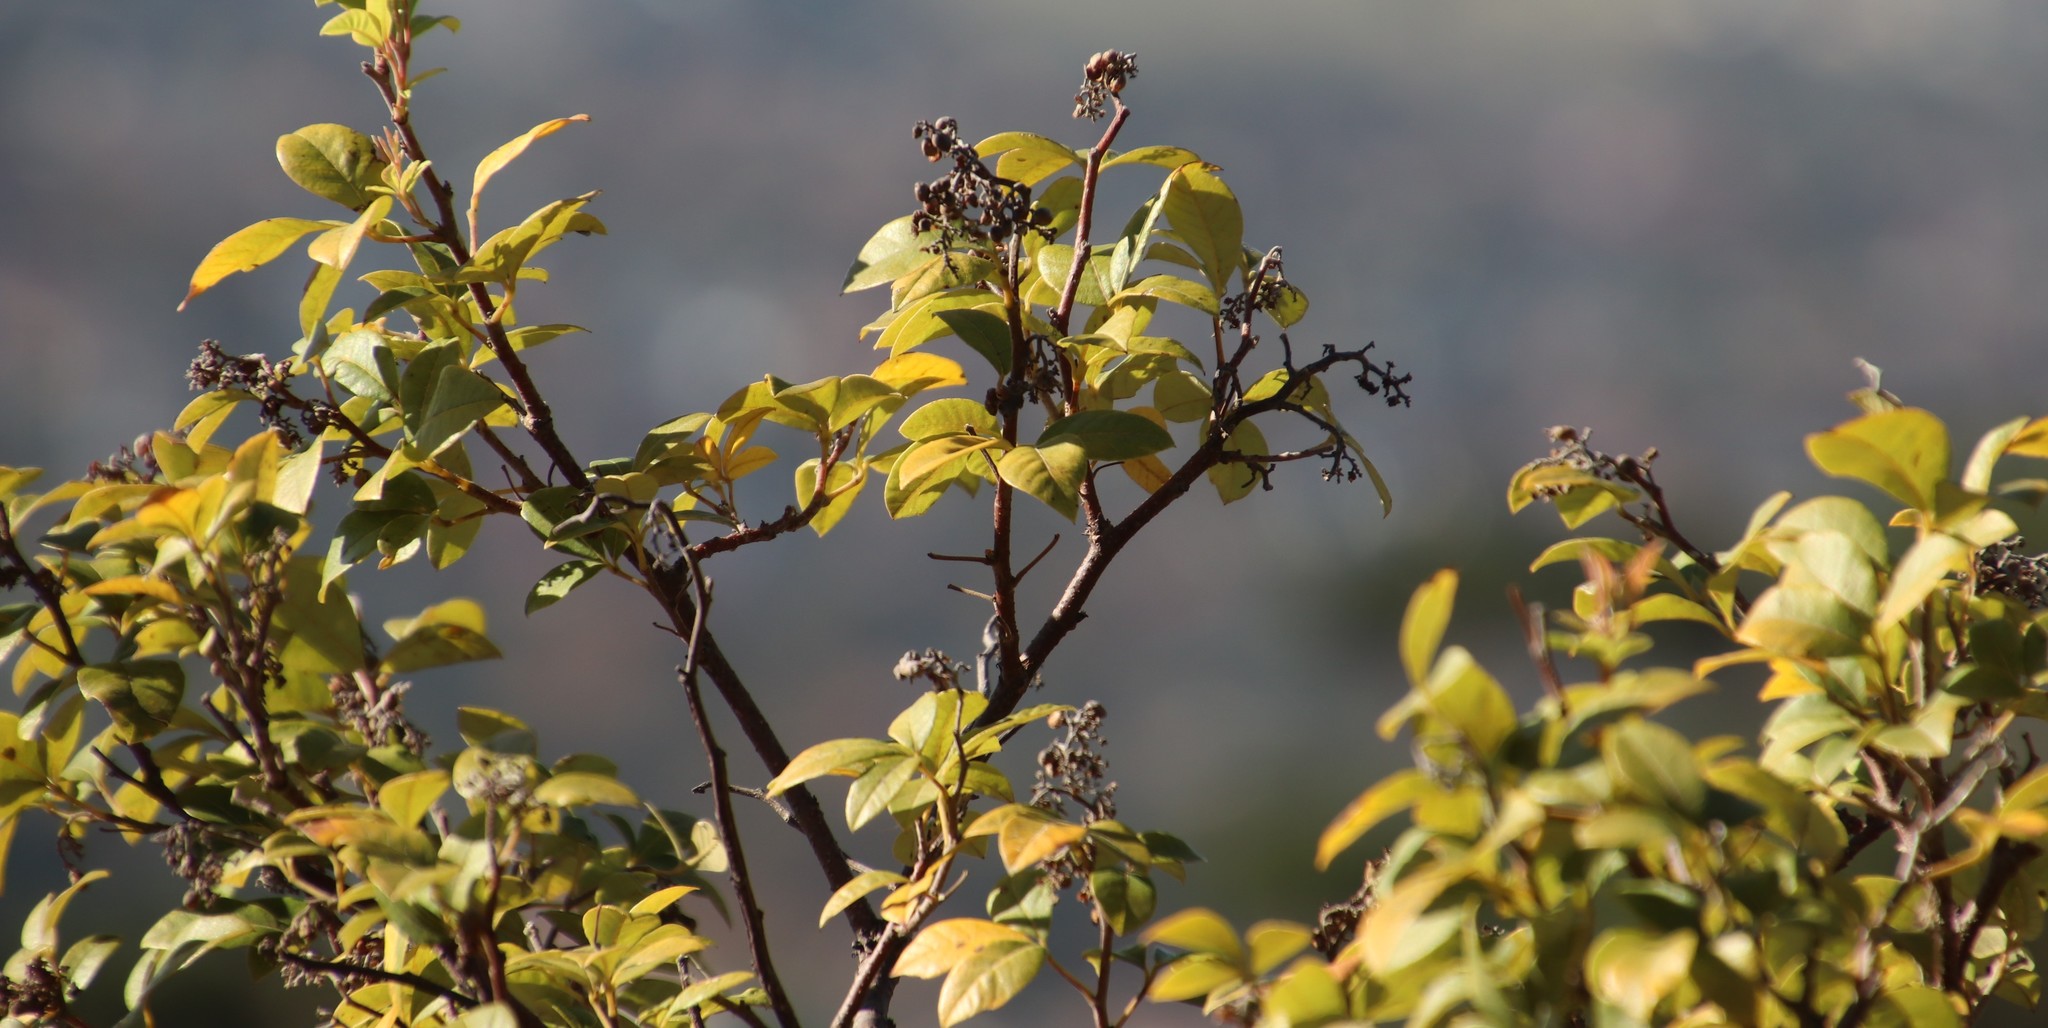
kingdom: Plantae
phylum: Tracheophyta
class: Magnoliopsida
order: Sapindales
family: Anacardiaceae
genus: Searsia
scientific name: Searsia tomentosa
